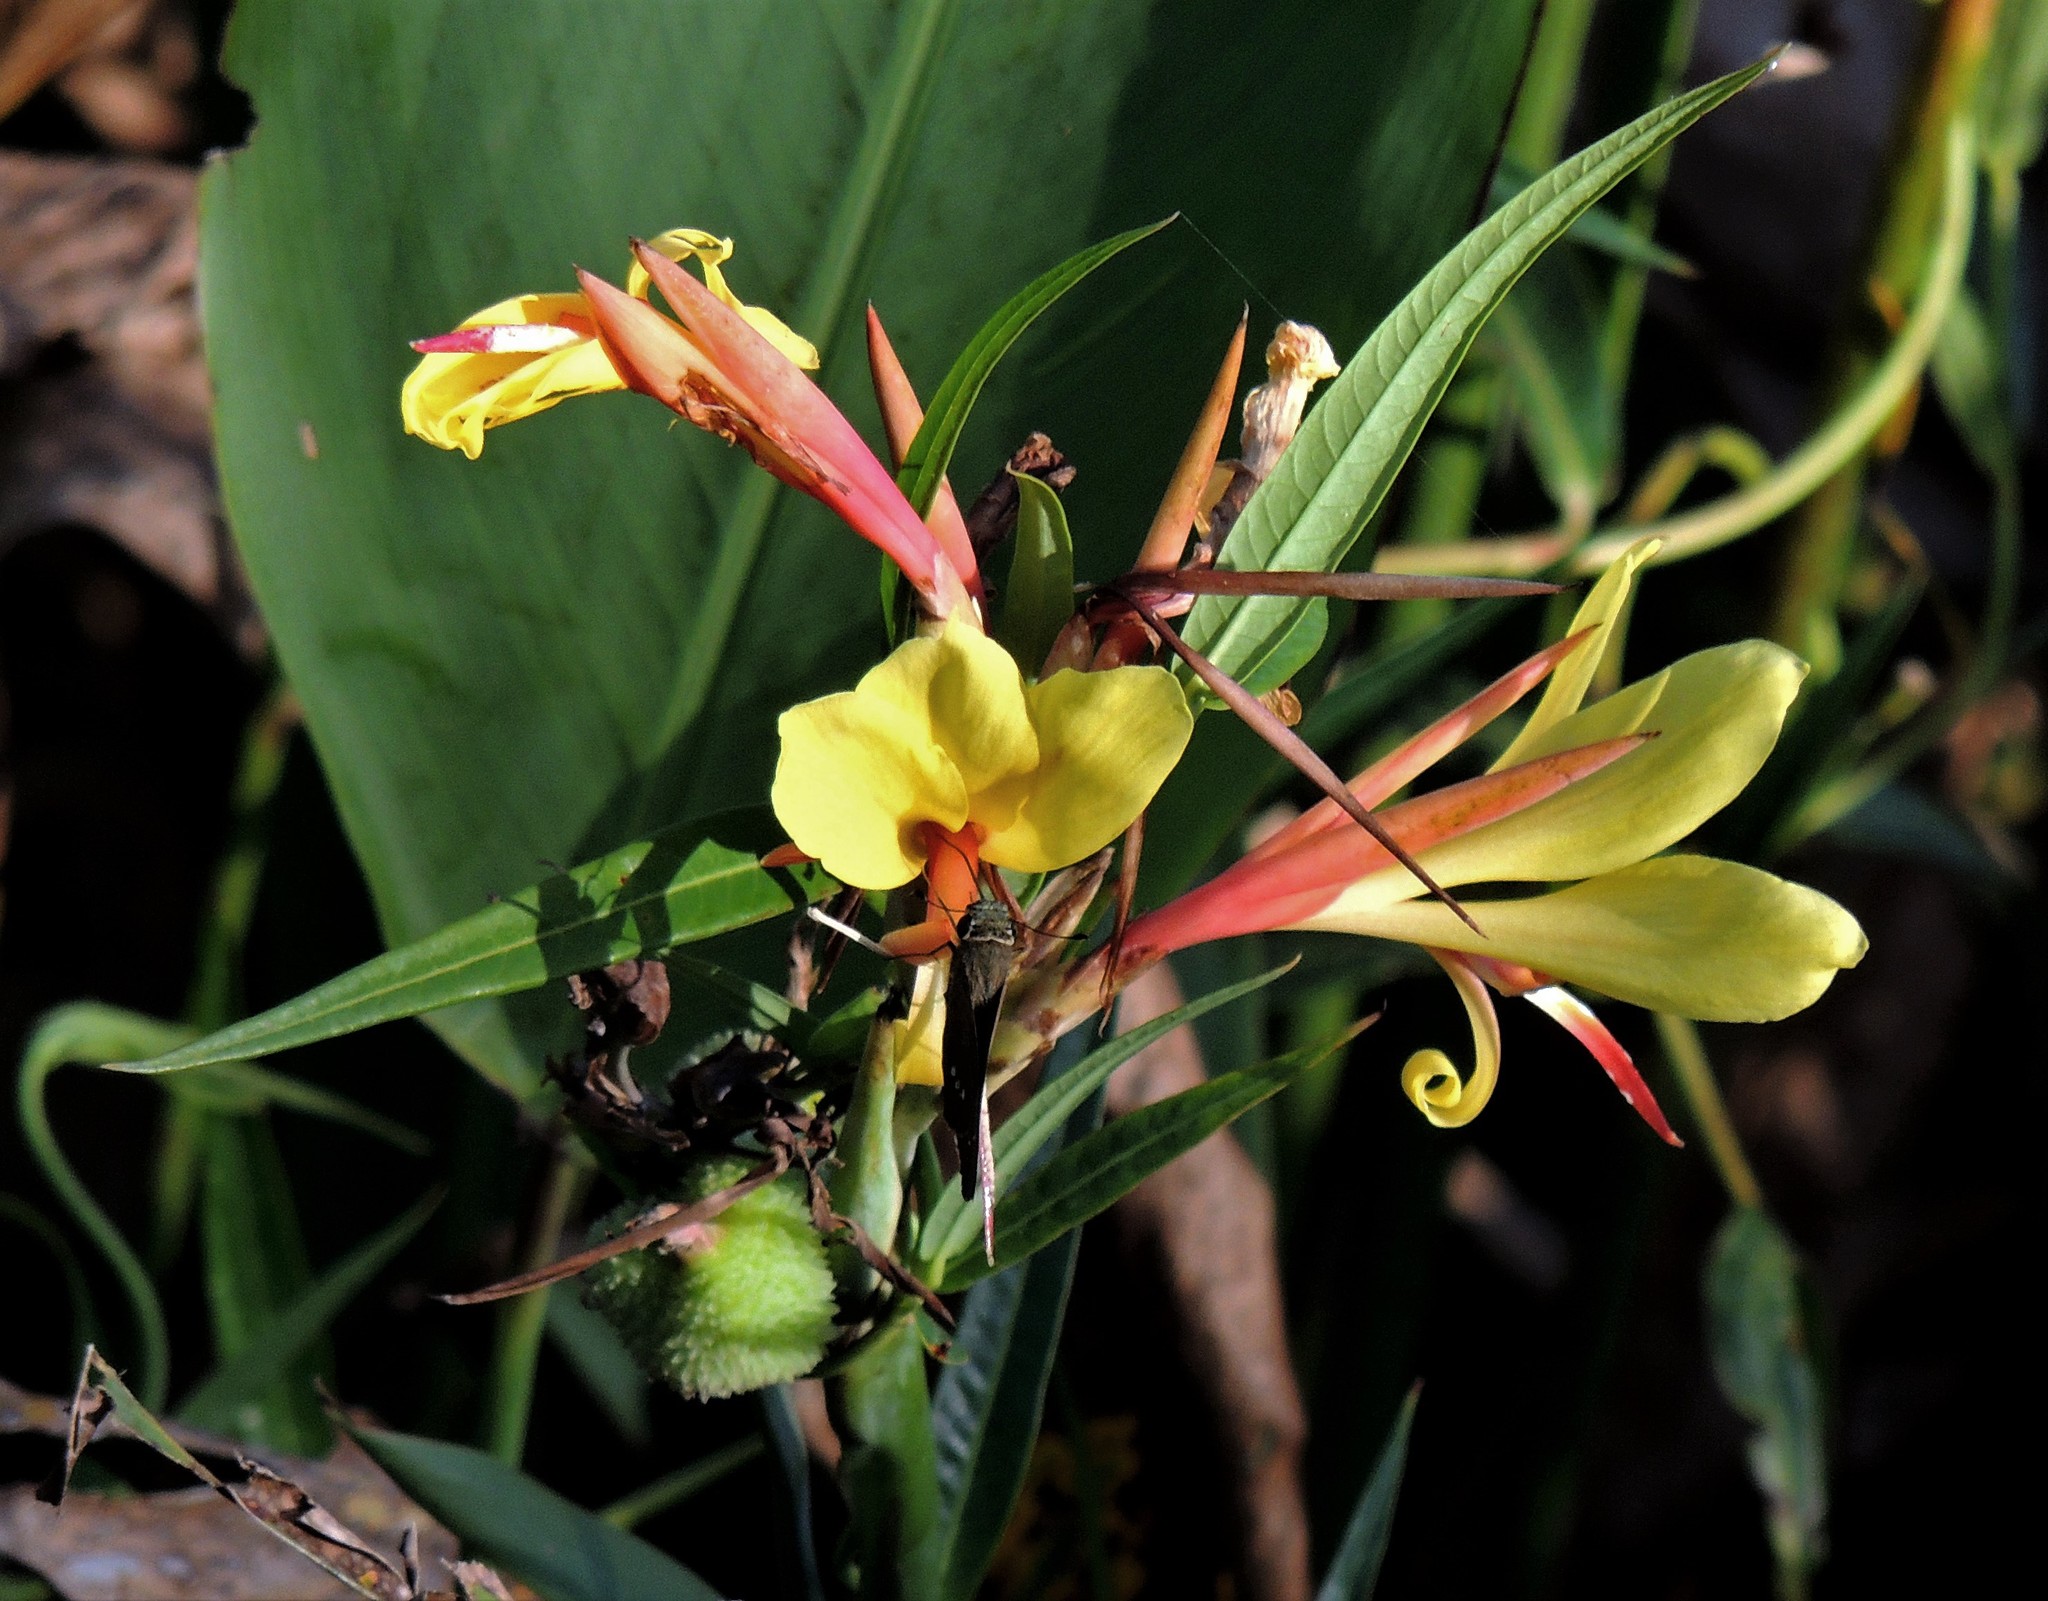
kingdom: Plantae
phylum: Tracheophyta
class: Liliopsida
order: Zingiberales
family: Cannaceae
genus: Canna
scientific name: Canna glauca
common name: Louisiana canna
